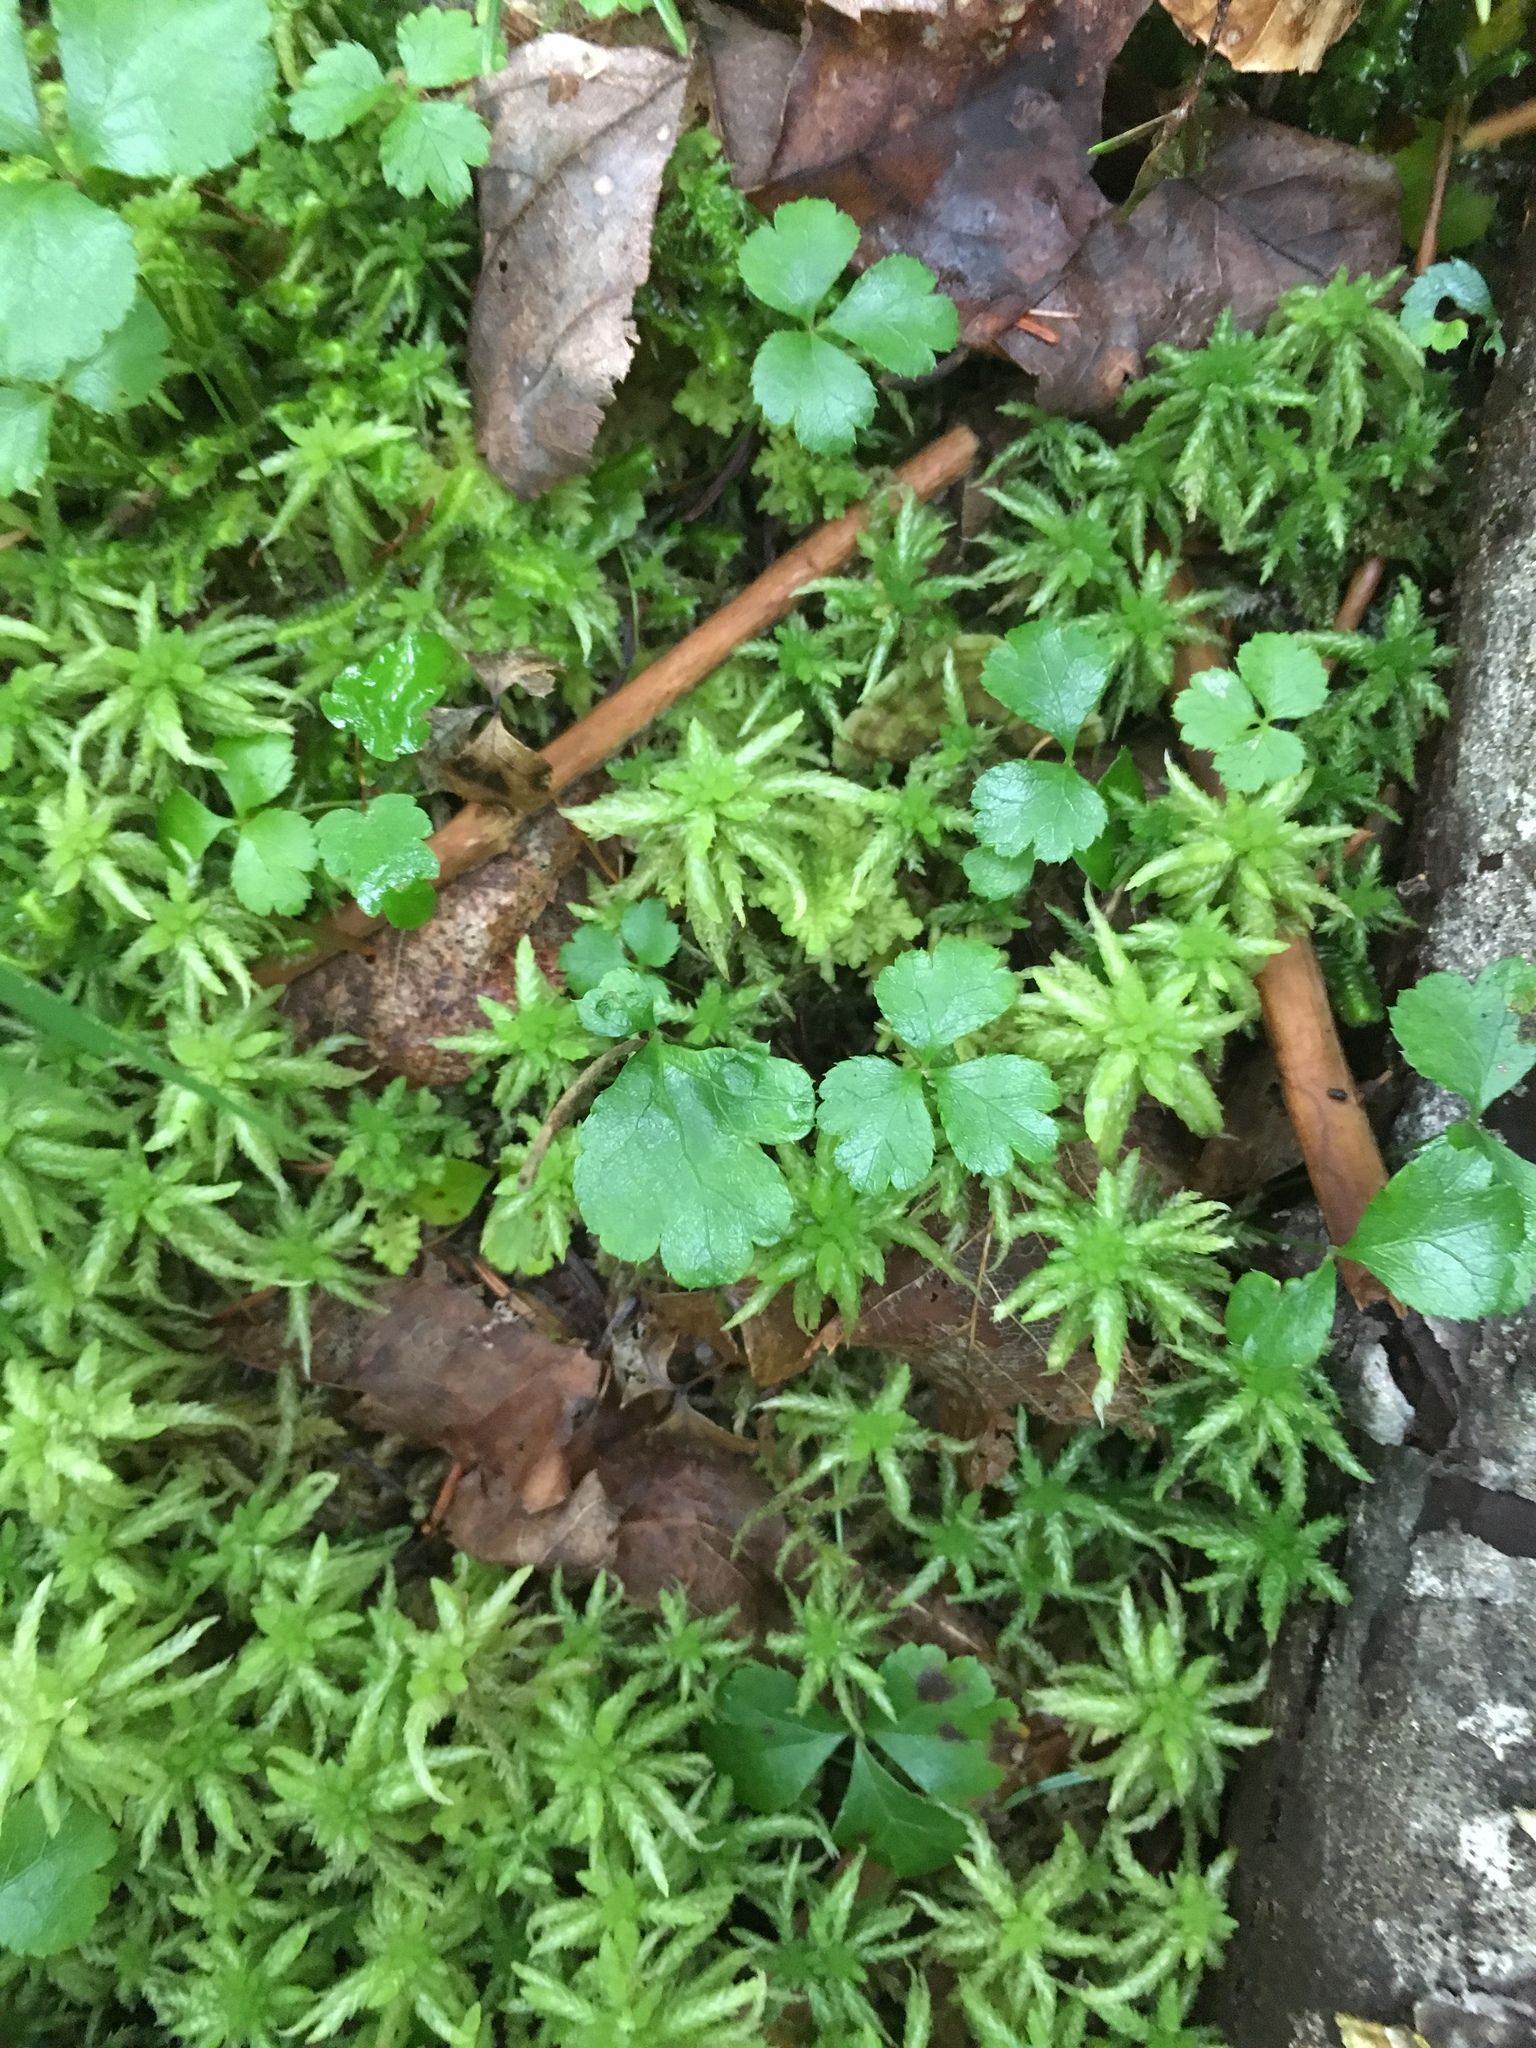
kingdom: Plantae
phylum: Tracheophyta
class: Magnoliopsida
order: Ranunculales
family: Ranunculaceae
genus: Coptis
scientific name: Coptis trifolia
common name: Canker-root
